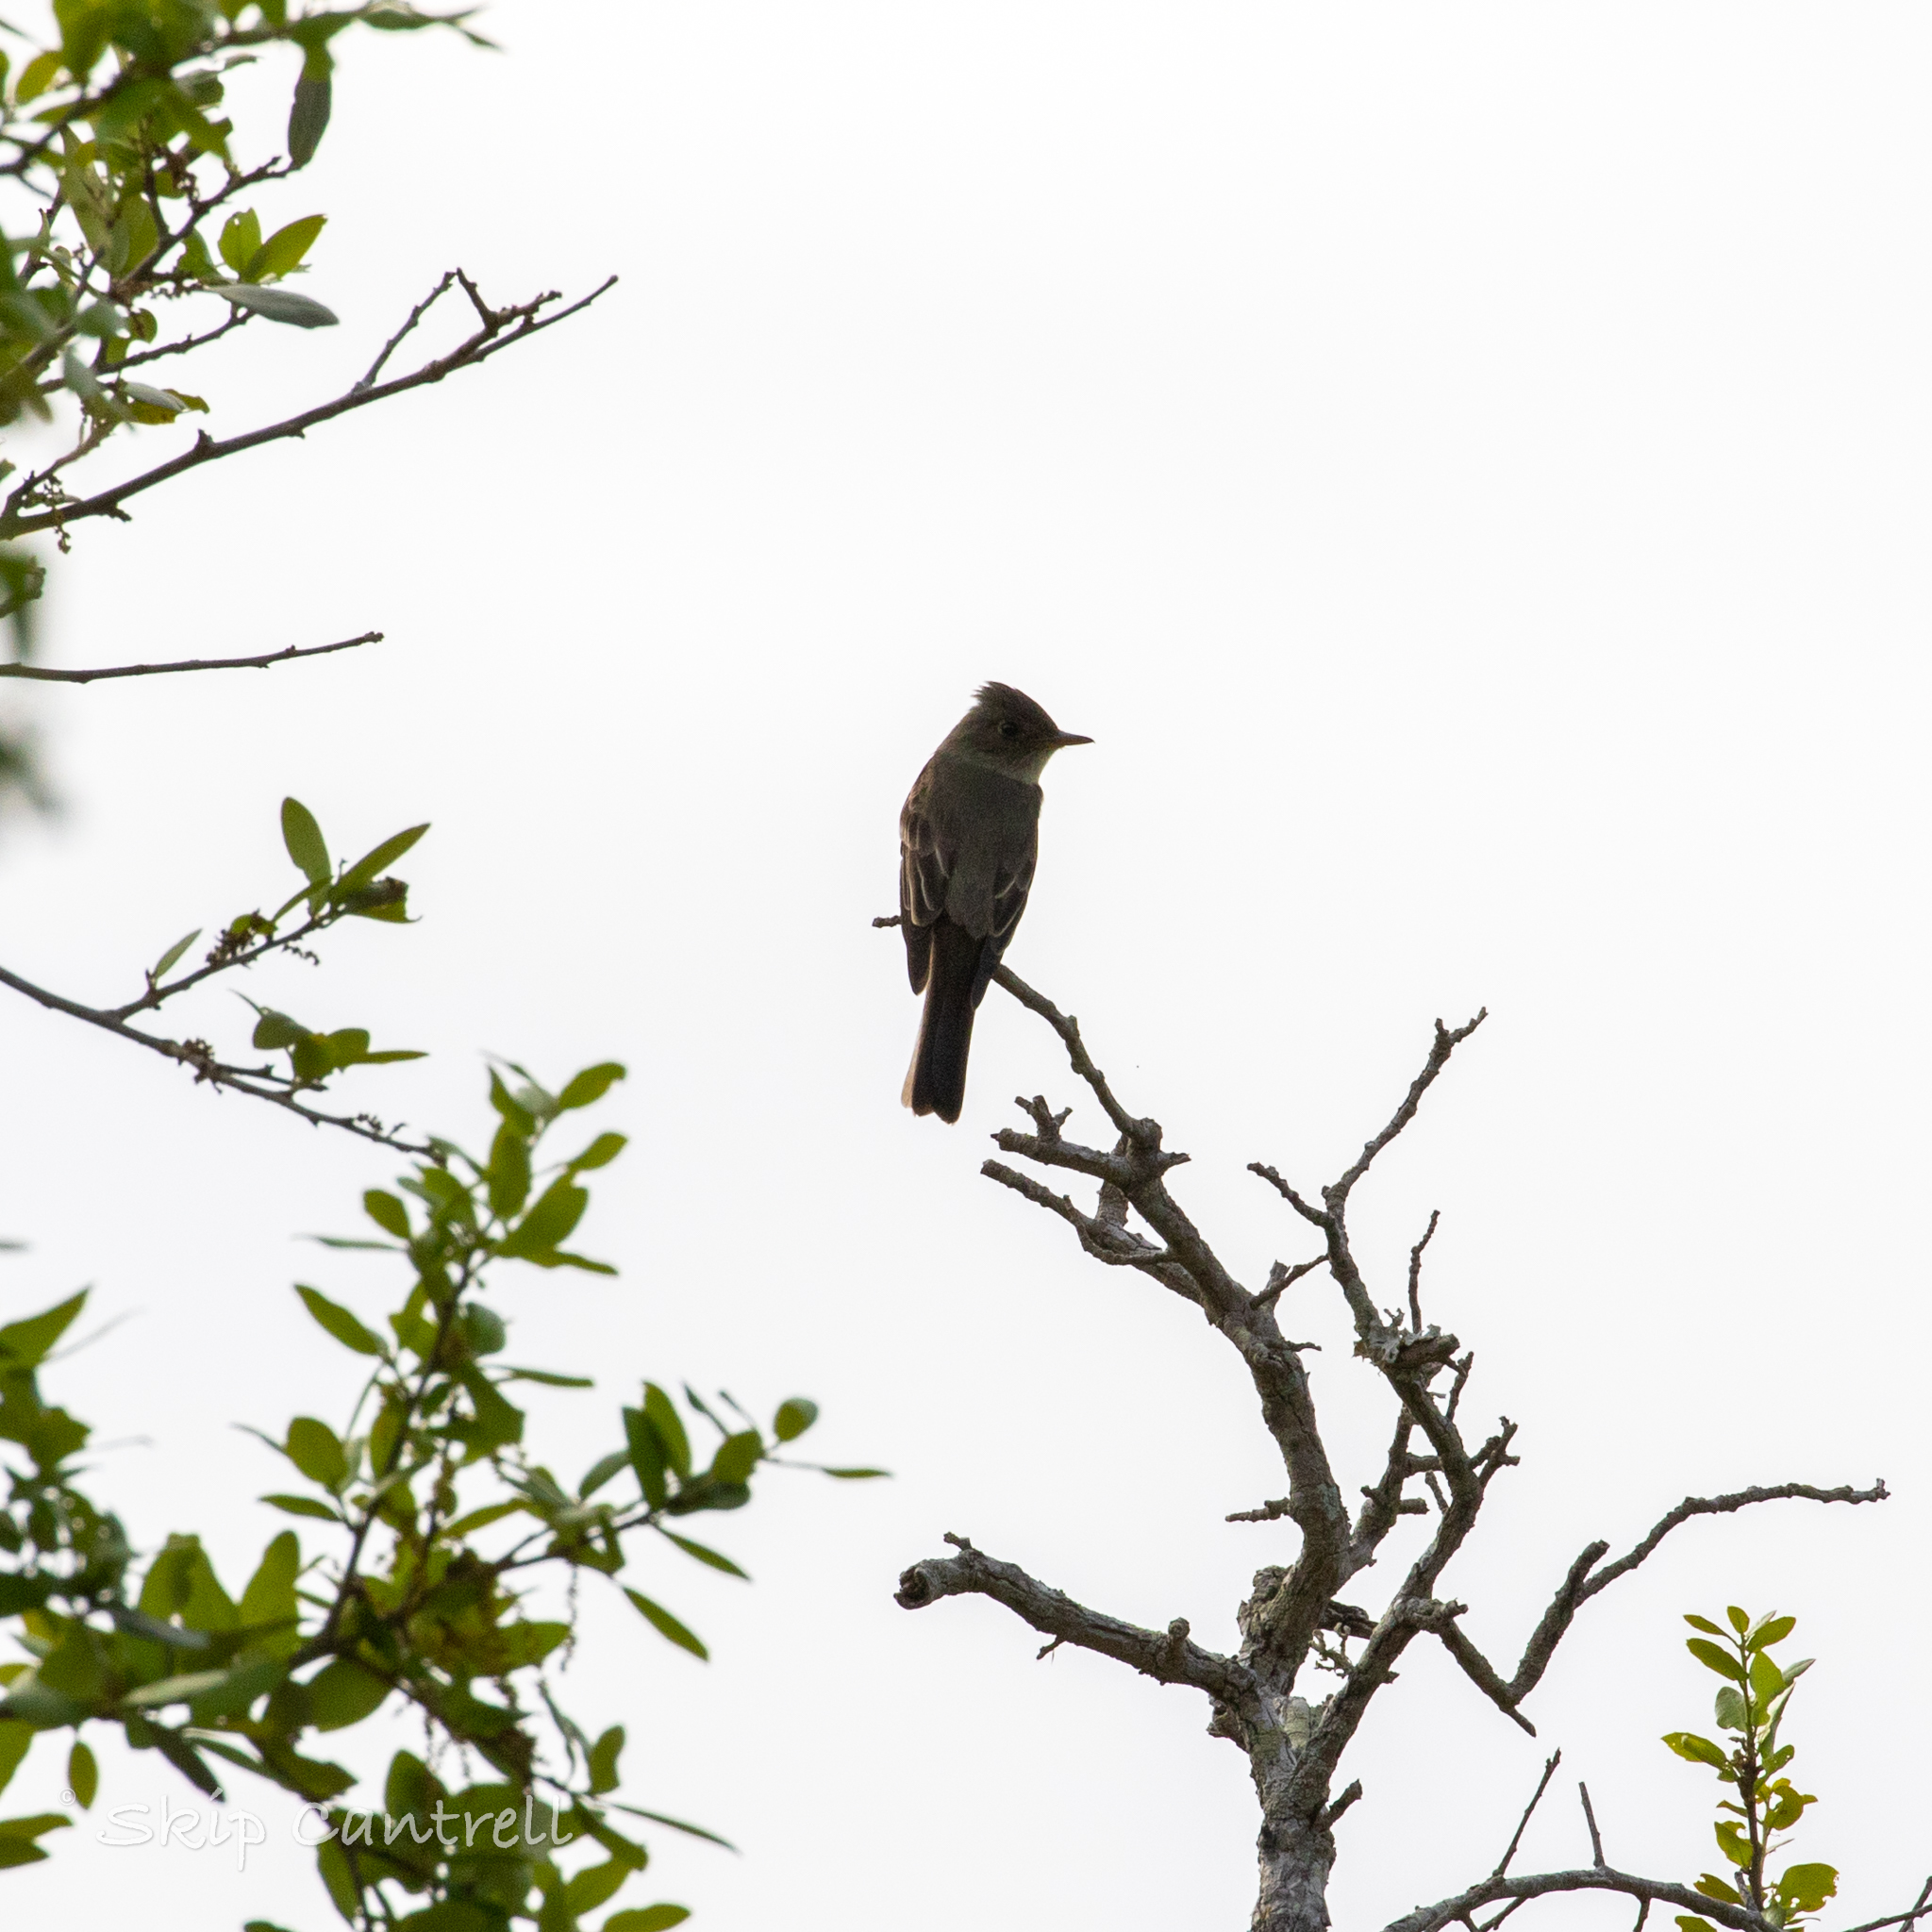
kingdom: Animalia
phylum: Chordata
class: Aves
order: Passeriformes
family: Tyrannidae
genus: Contopus
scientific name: Contopus virens
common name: Eastern wood-pewee
